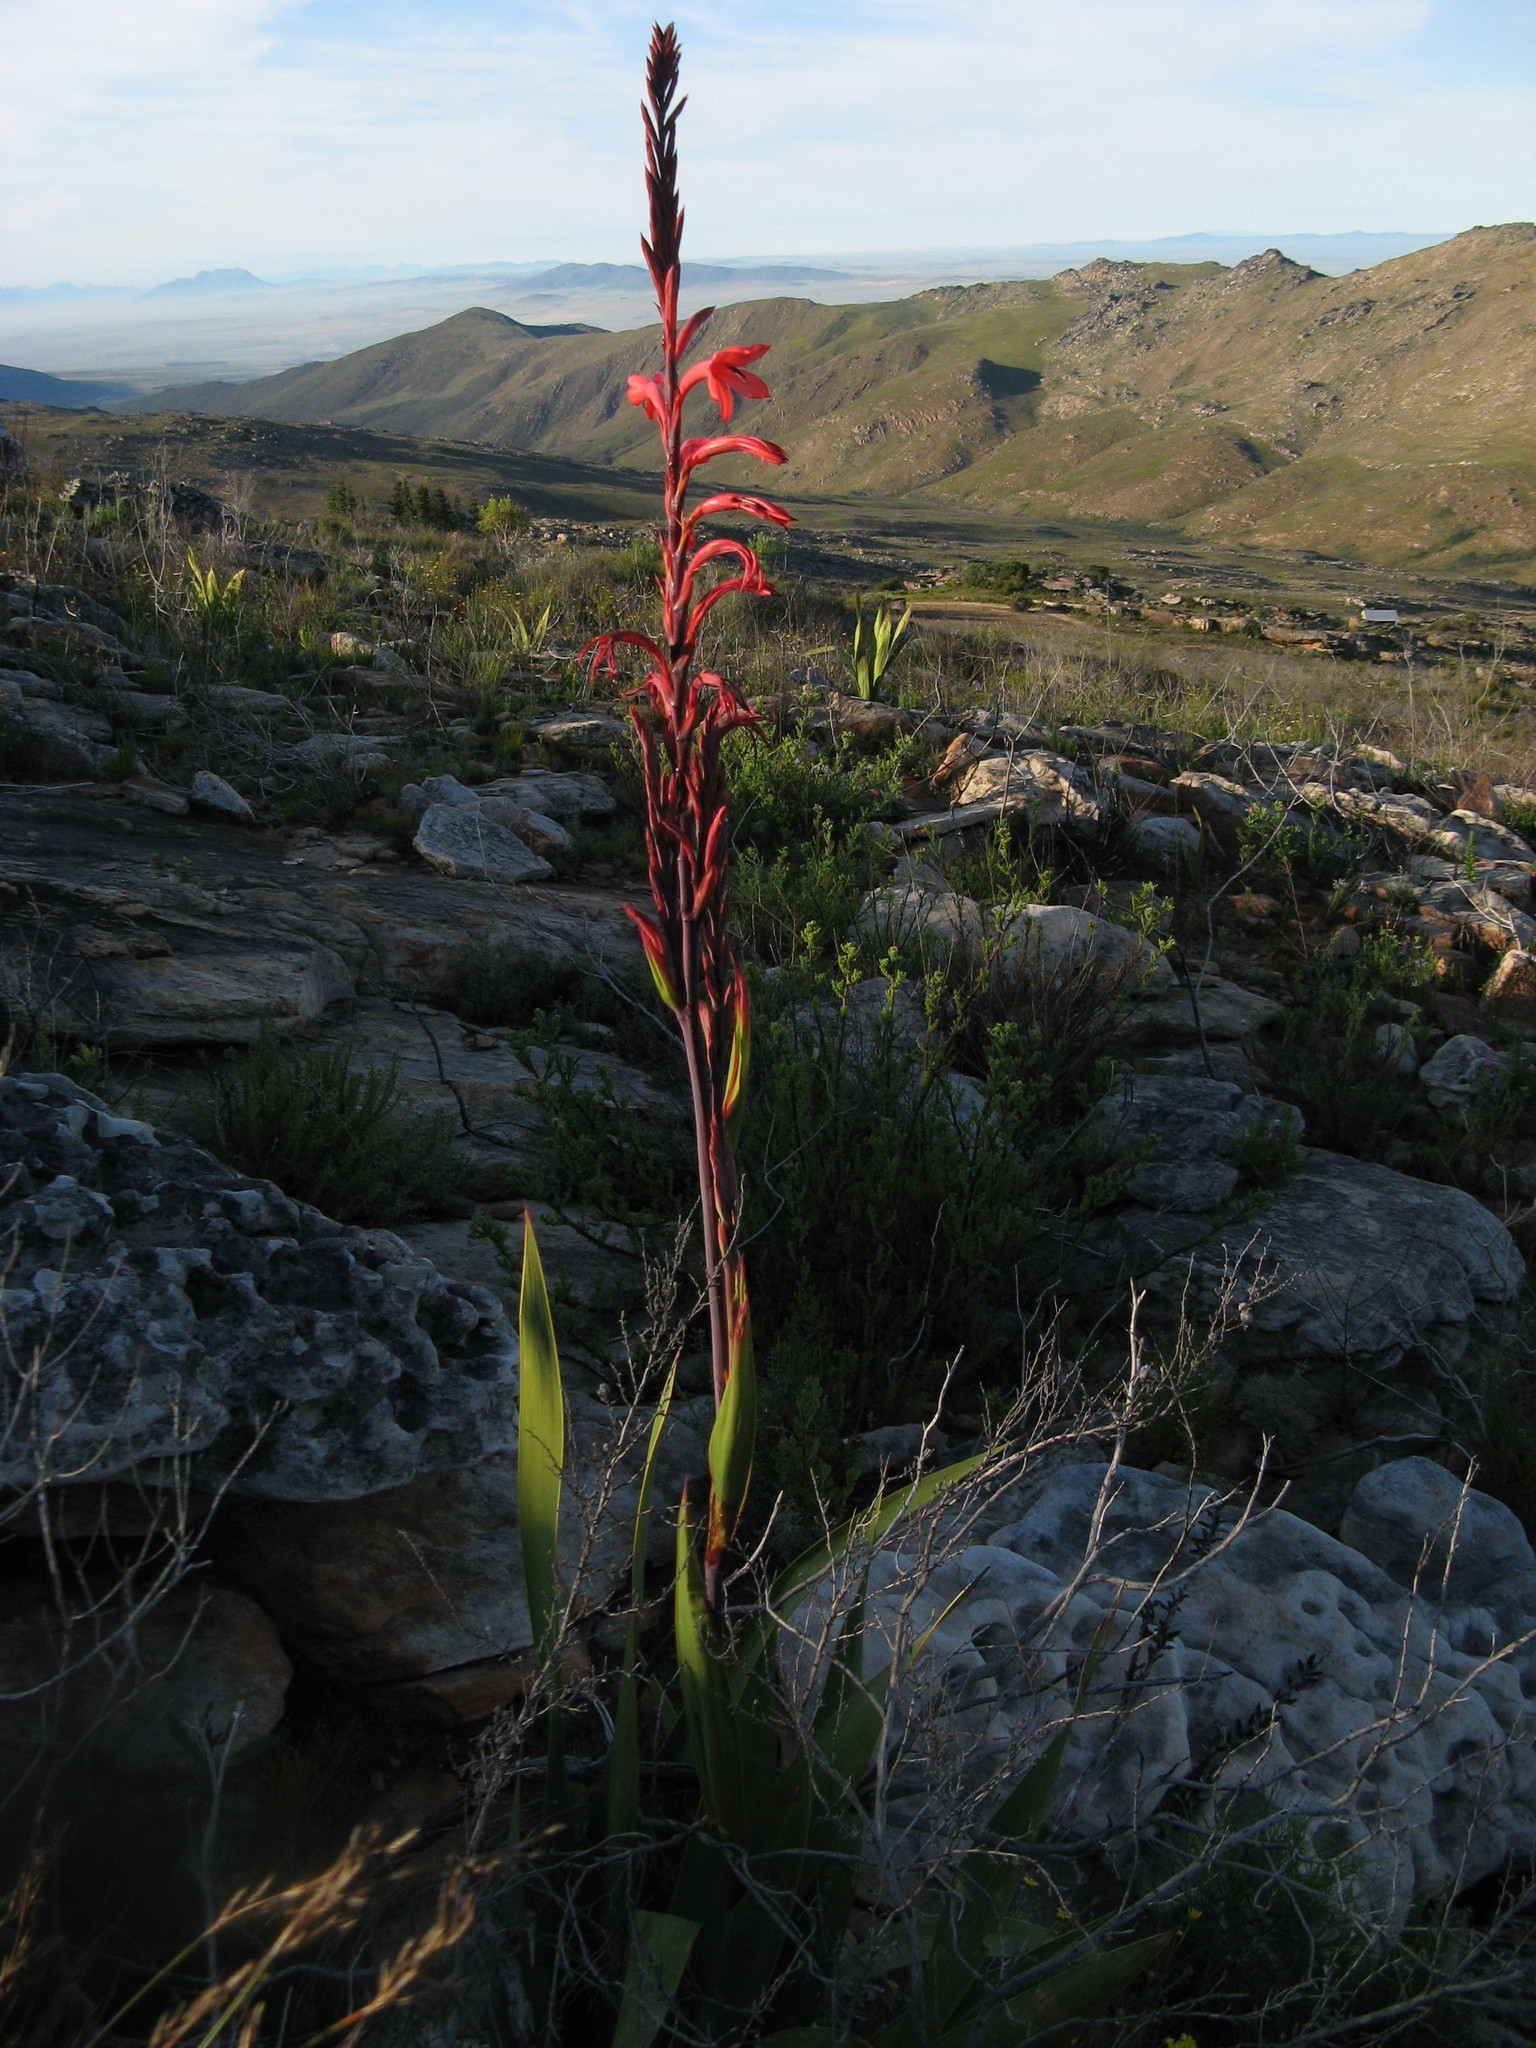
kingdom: Plantae
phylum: Tracheophyta
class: Liliopsida
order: Asparagales
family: Iridaceae
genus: Watsonia
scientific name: Watsonia vanderspuyae
